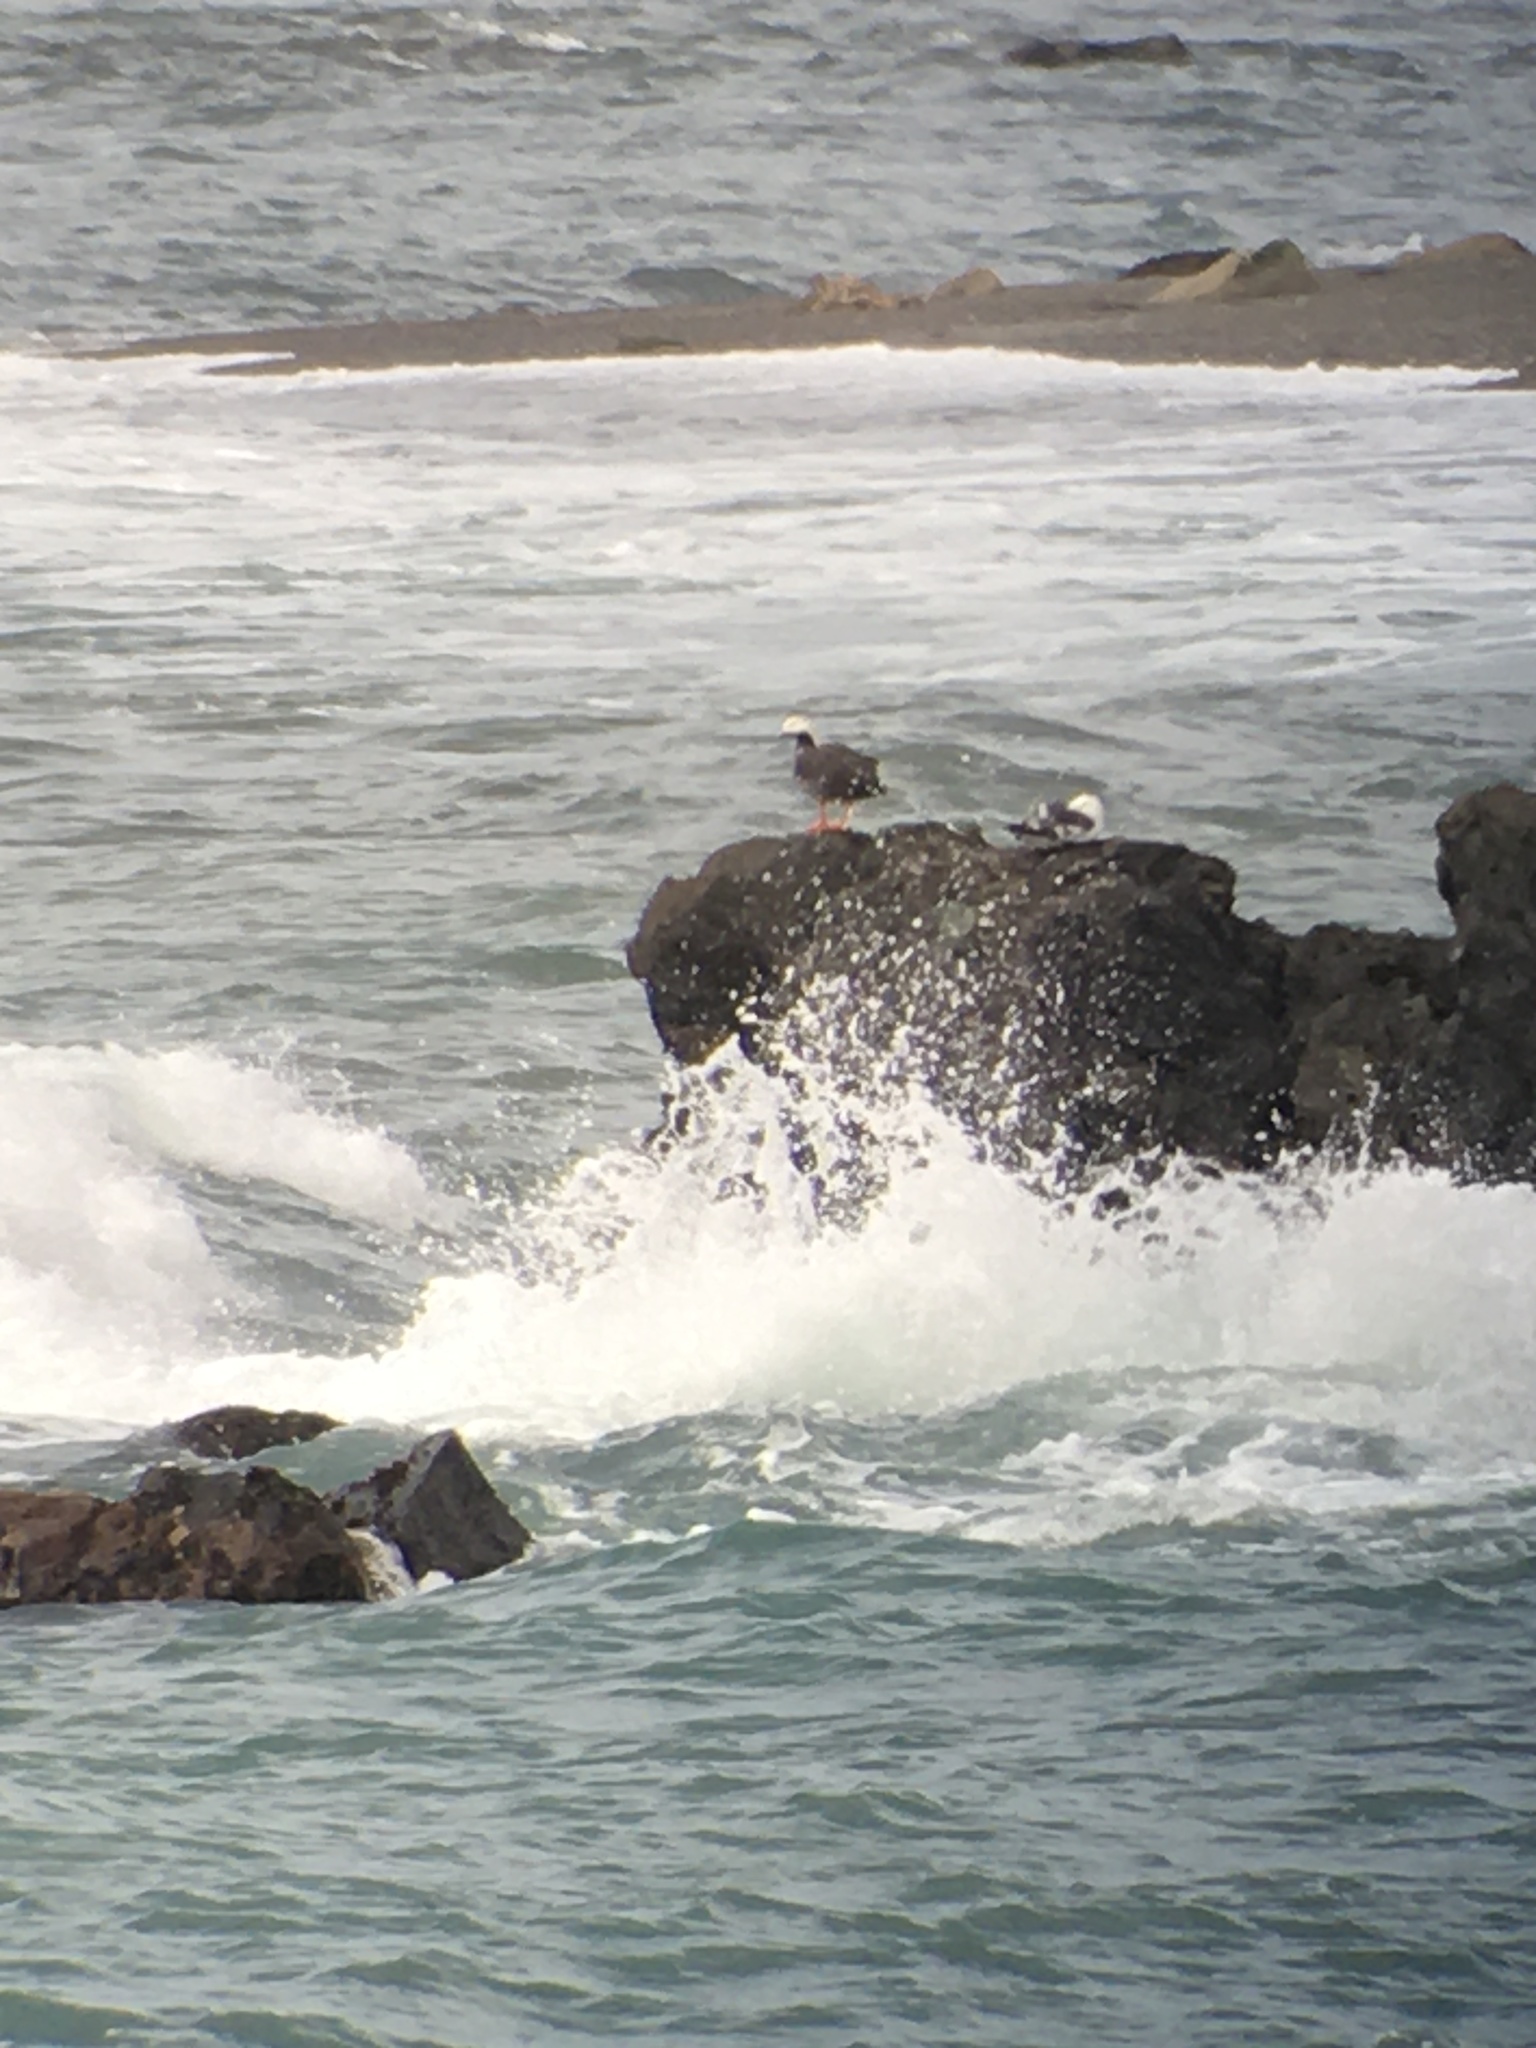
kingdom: Animalia
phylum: Chordata
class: Aves
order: Anseriformes
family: Anatidae
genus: Anser
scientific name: Anser canagicus
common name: Emperor goose
